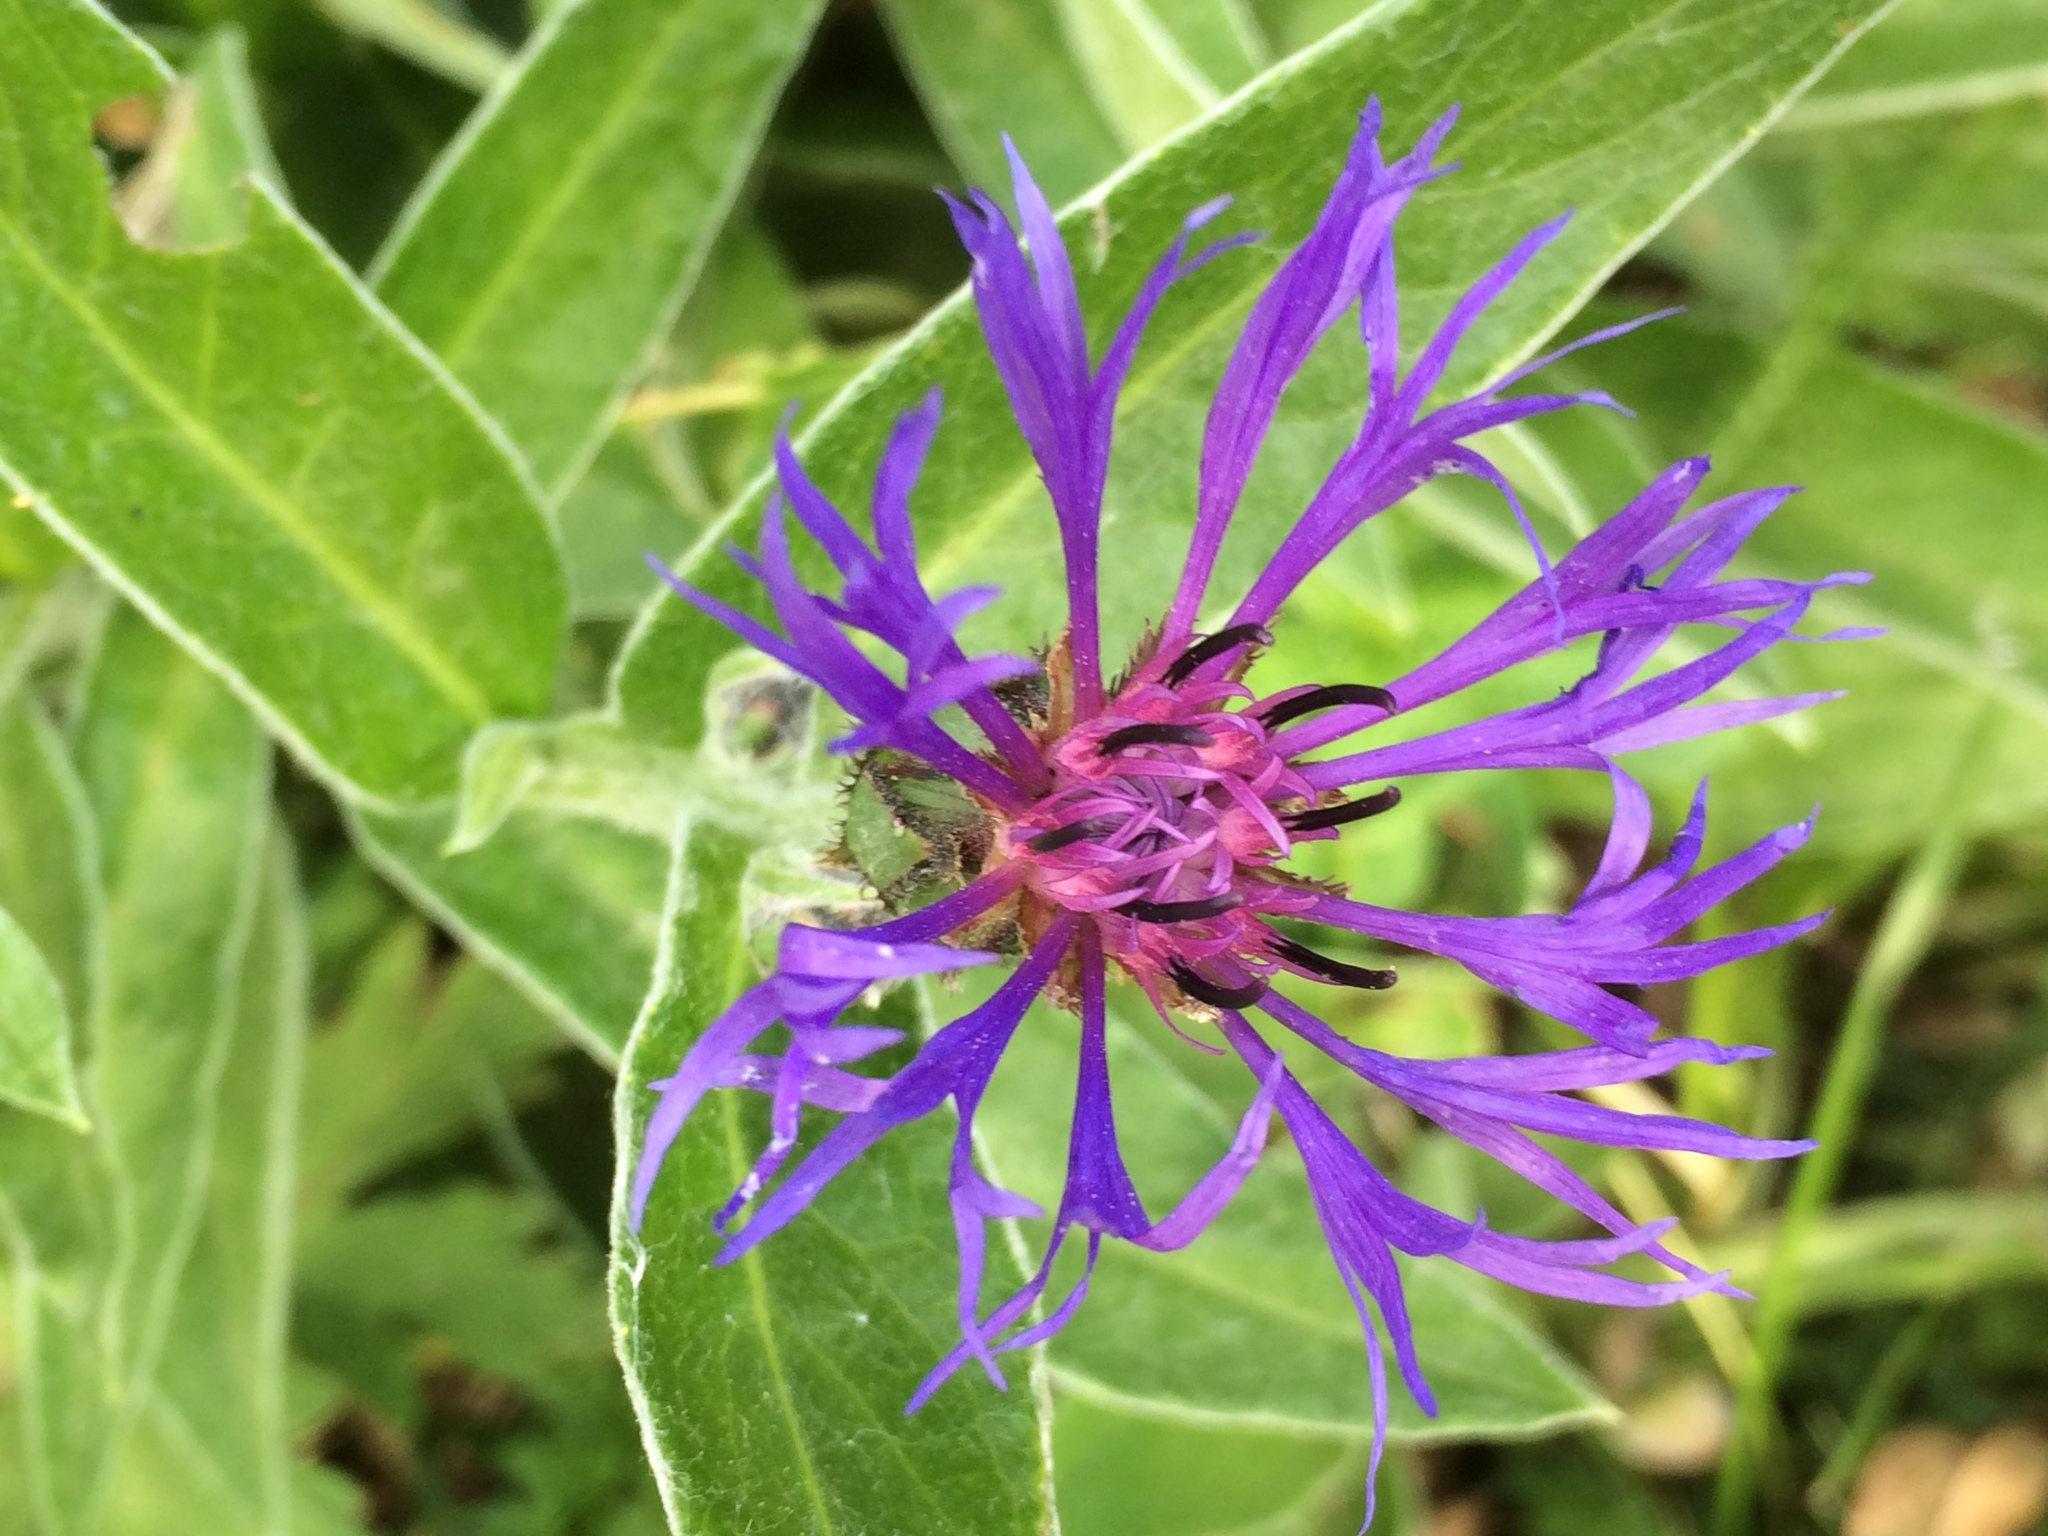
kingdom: Plantae
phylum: Tracheophyta
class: Magnoliopsida
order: Asterales
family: Asteraceae
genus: Centaurea
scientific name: Centaurea montana
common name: Perennial cornflower
